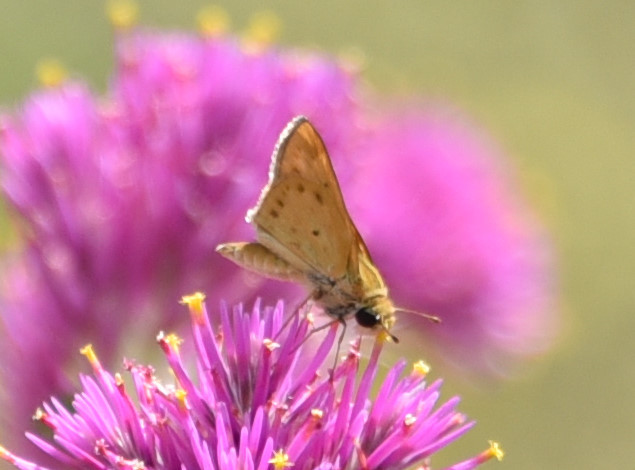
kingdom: Animalia
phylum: Arthropoda
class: Insecta
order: Lepidoptera
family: Hesperiidae
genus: Hylephila
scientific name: Hylephila phyleus
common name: Fiery skipper
